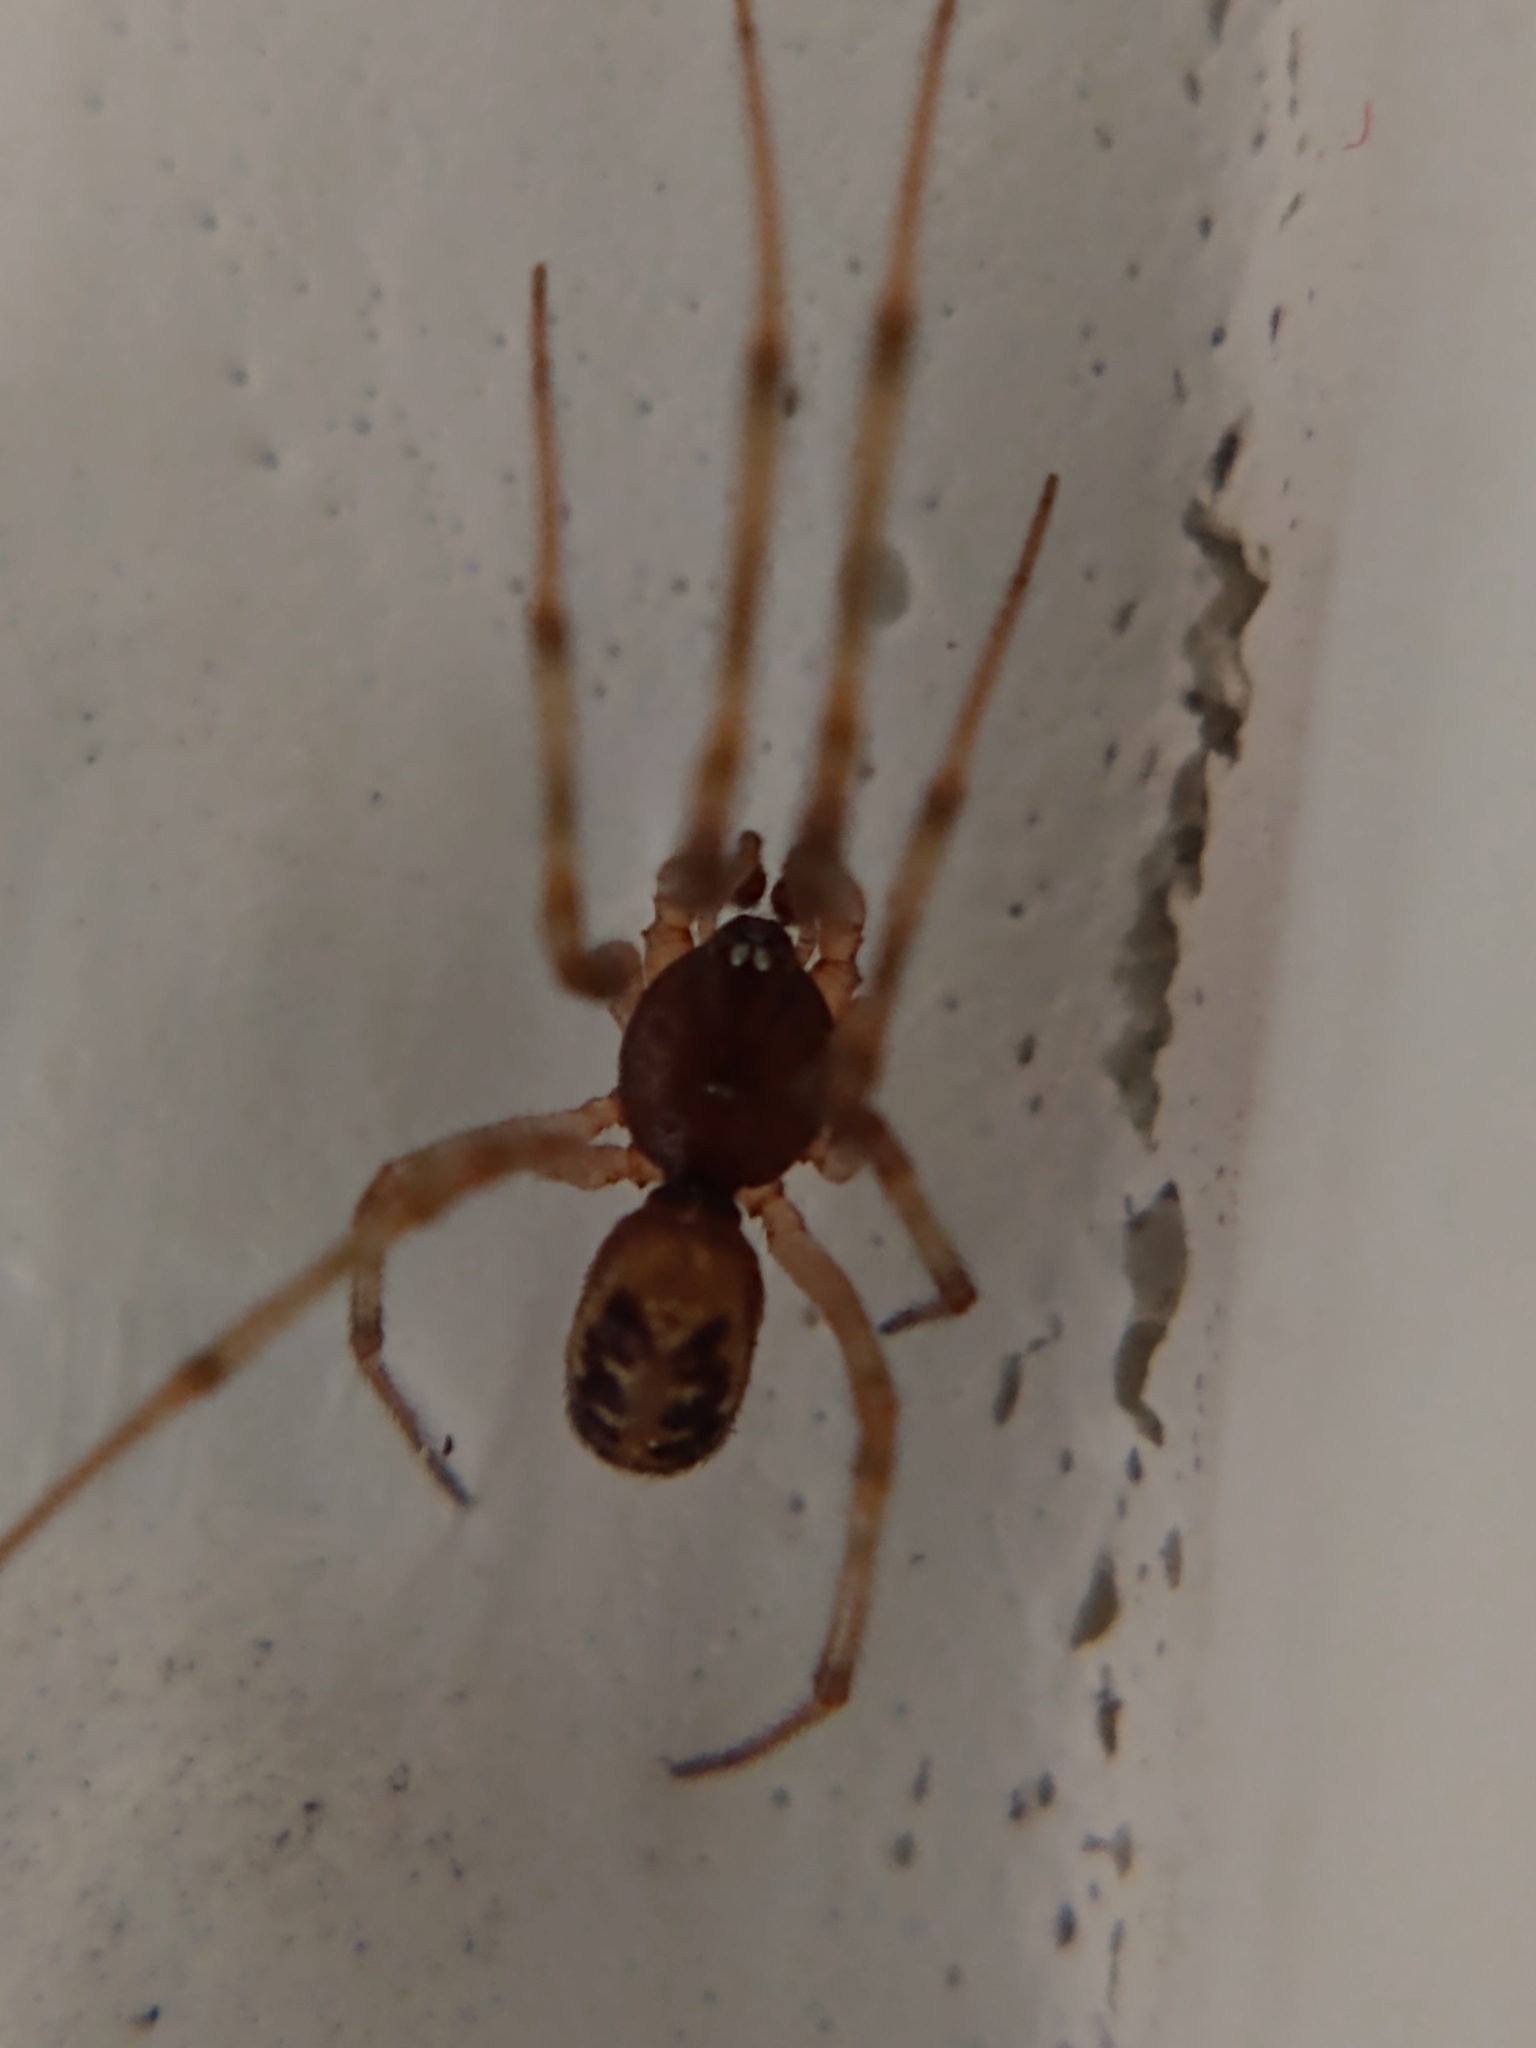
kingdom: Animalia
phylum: Arthropoda
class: Arachnida
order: Araneae
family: Theridiidae
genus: Steatoda
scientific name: Steatoda triangulosa
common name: Triangulate bud spider
